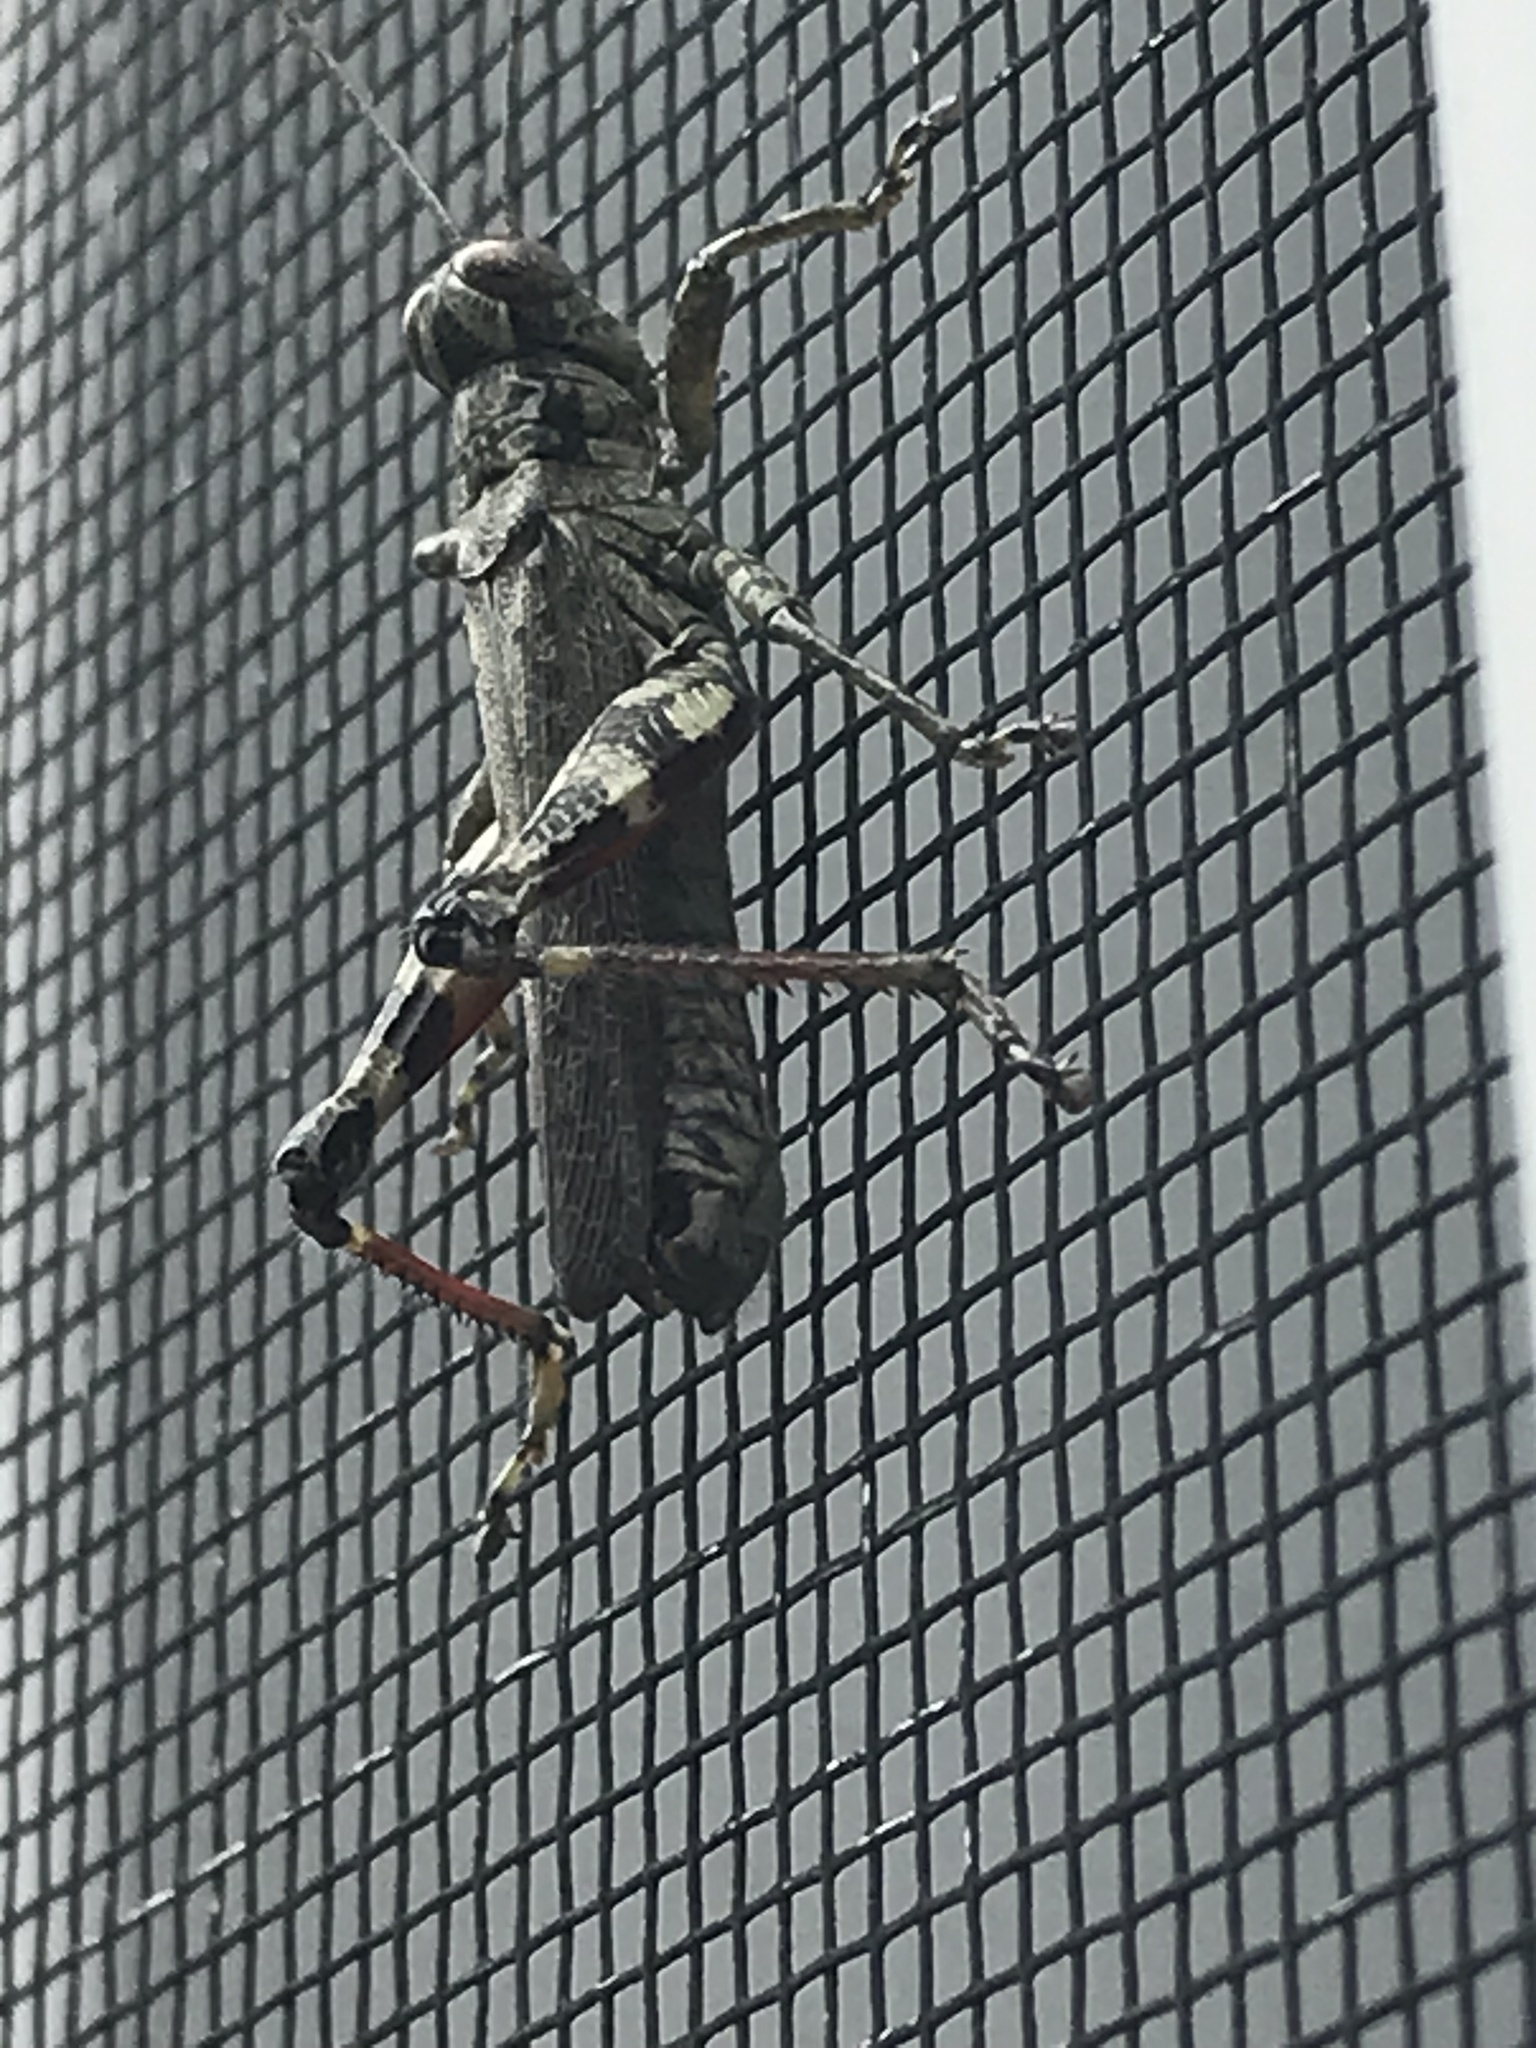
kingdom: Animalia
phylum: Arthropoda
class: Insecta
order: Orthoptera
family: Acrididae
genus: Melanoplus
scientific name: Melanoplus punctulatus
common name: Pine-tree spur-throat grasshopper
